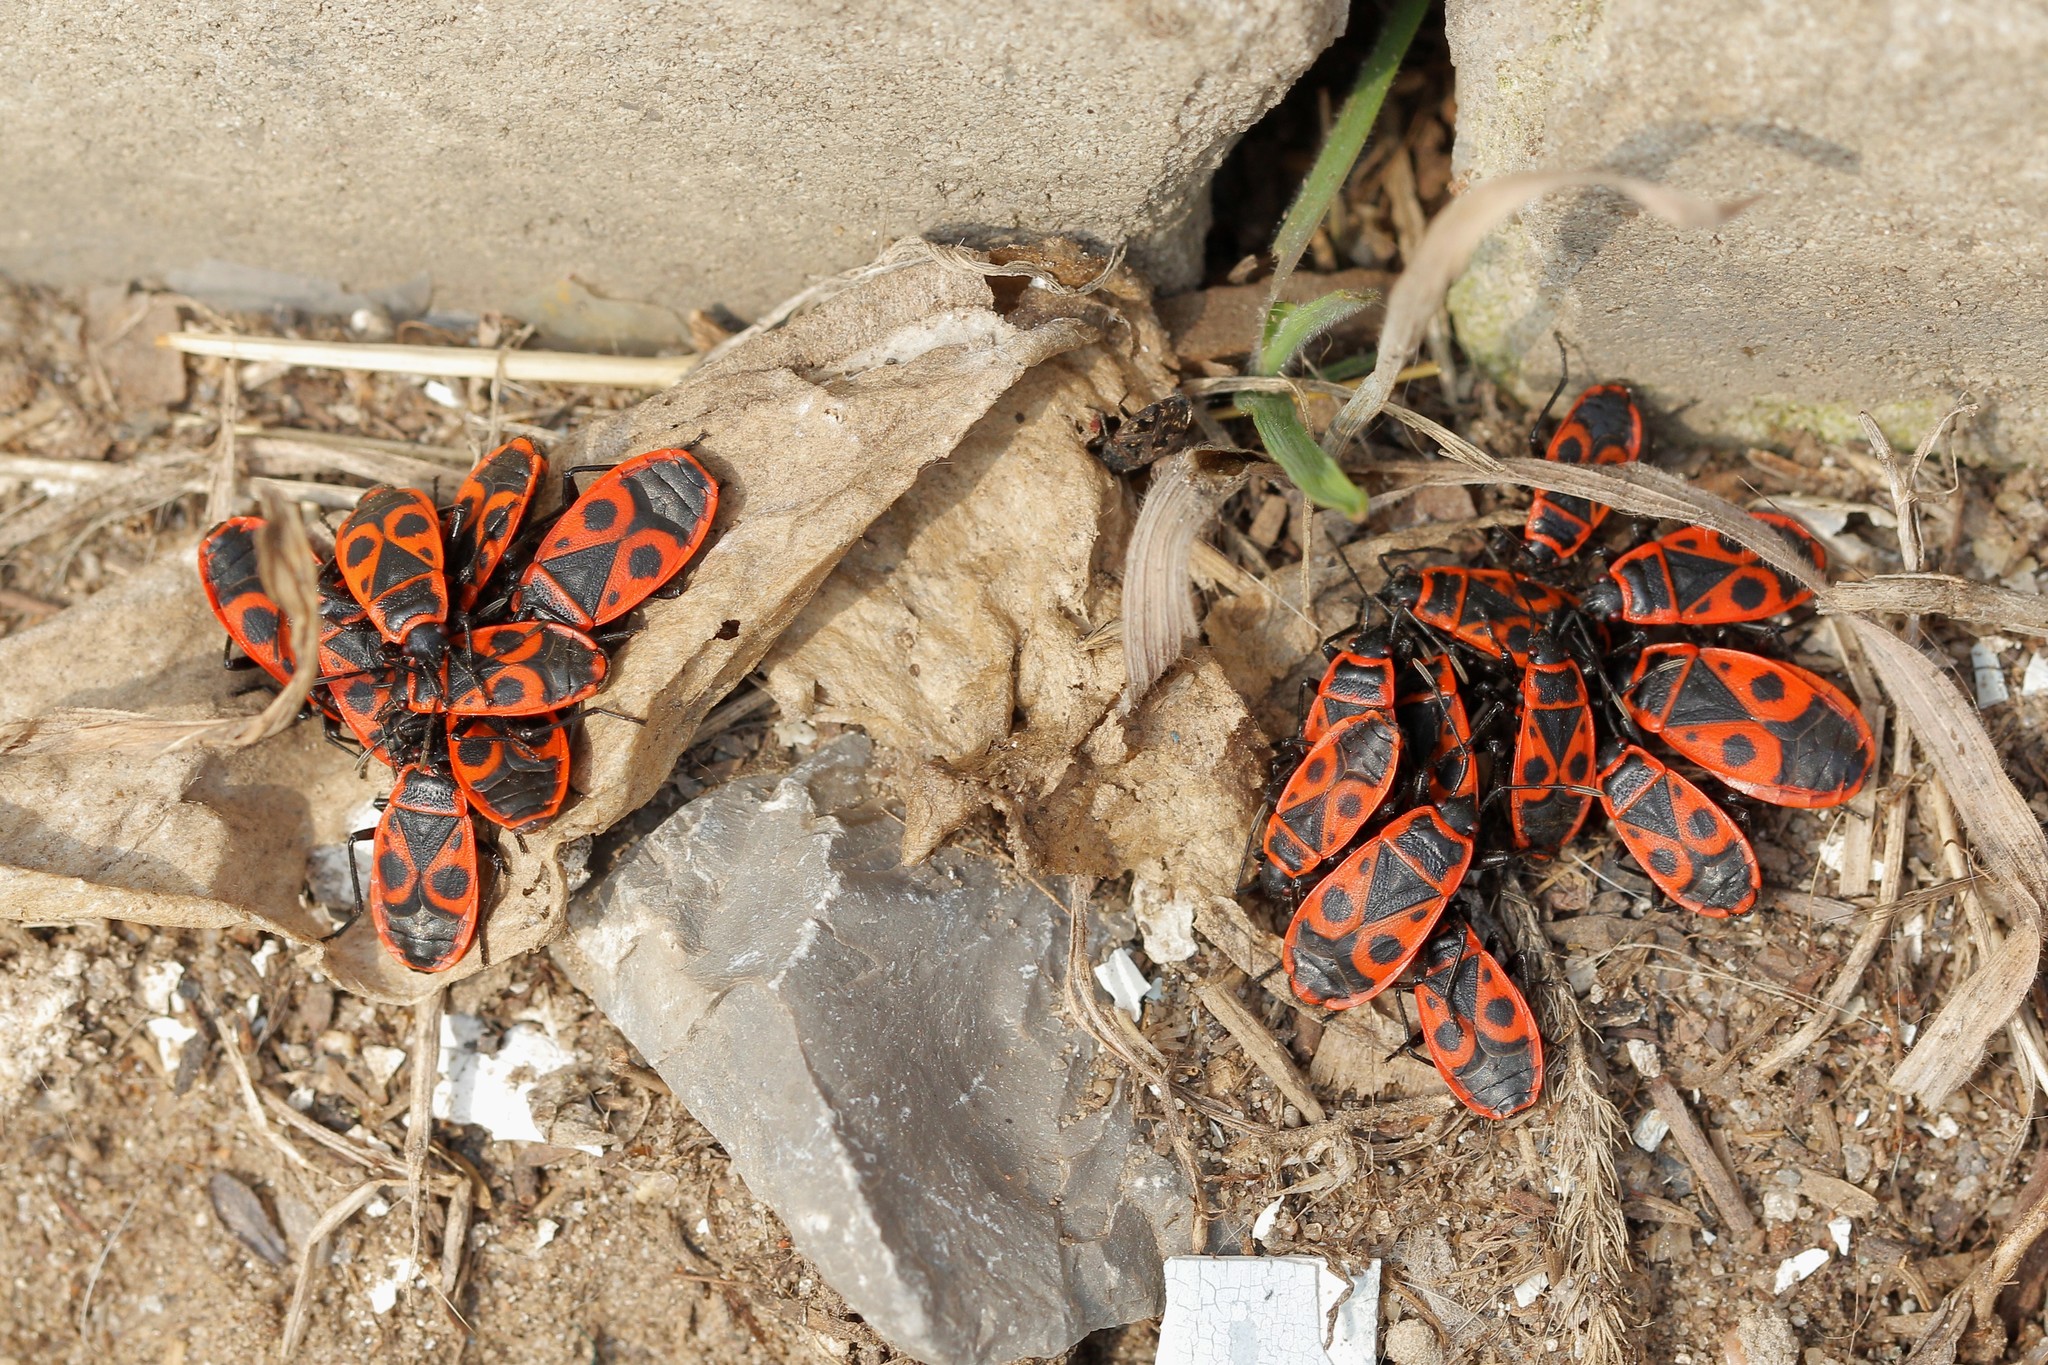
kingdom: Animalia
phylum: Arthropoda
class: Insecta
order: Hemiptera
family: Pyrrhocoridae
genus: Pyrrhocoris
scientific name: Pyrrhocoris apterus
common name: Firebug
